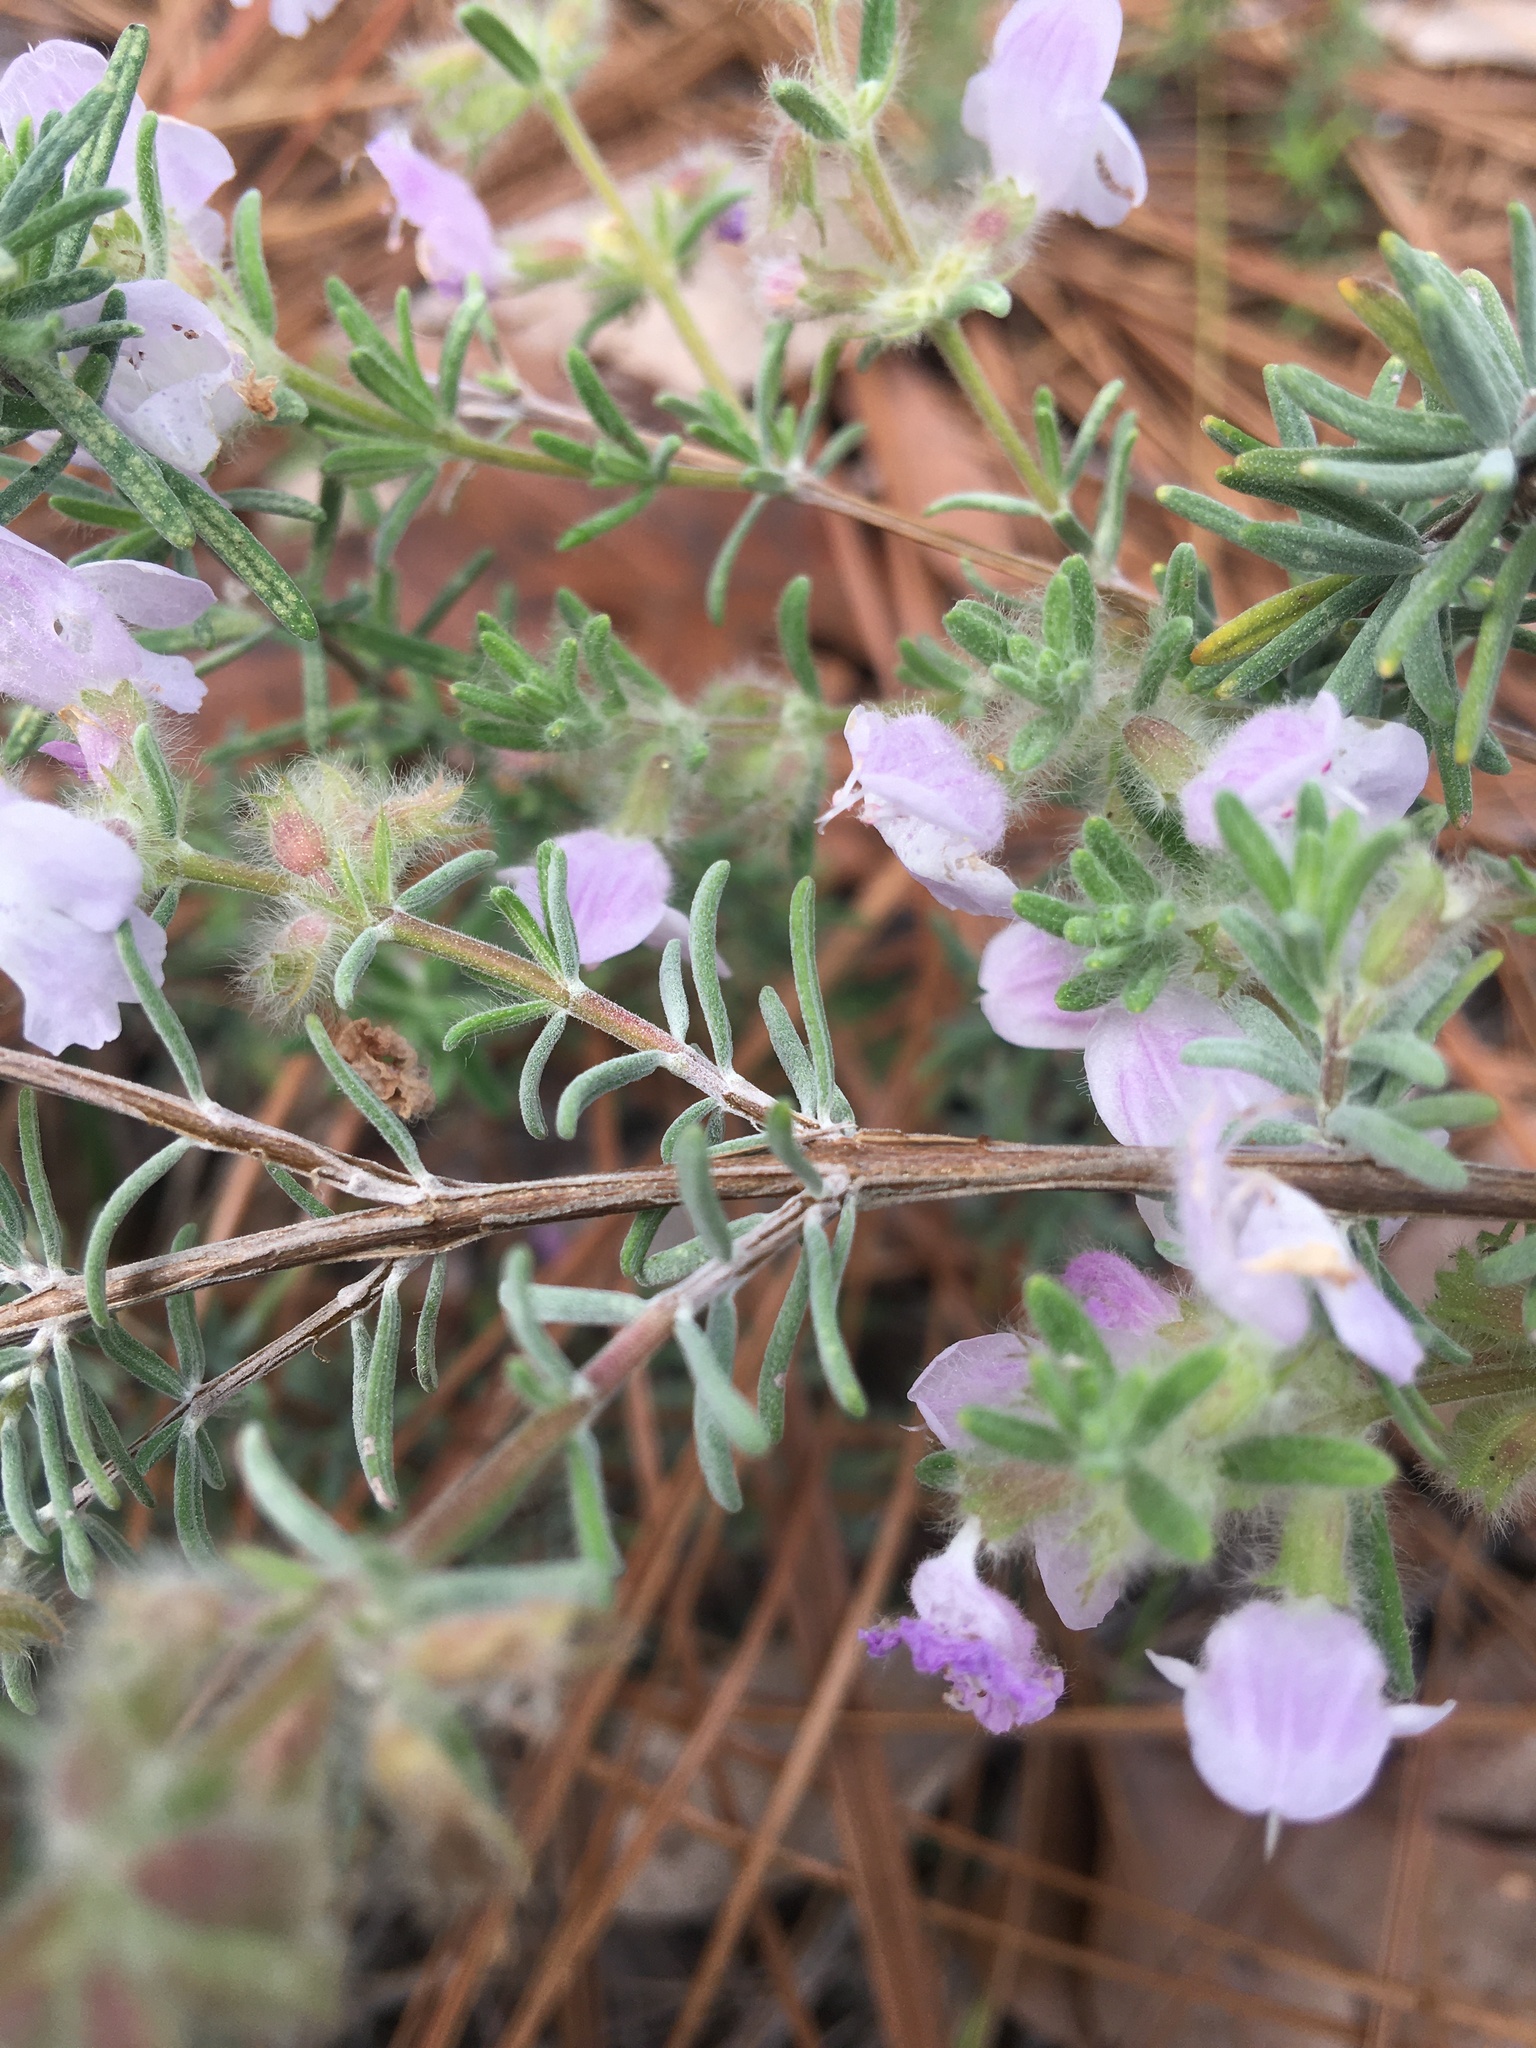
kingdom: Plantae
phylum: Tracheophyta
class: Magnoliopsida
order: Lamiales
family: Lamiaceae
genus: Conradina
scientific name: Conradina canescens
